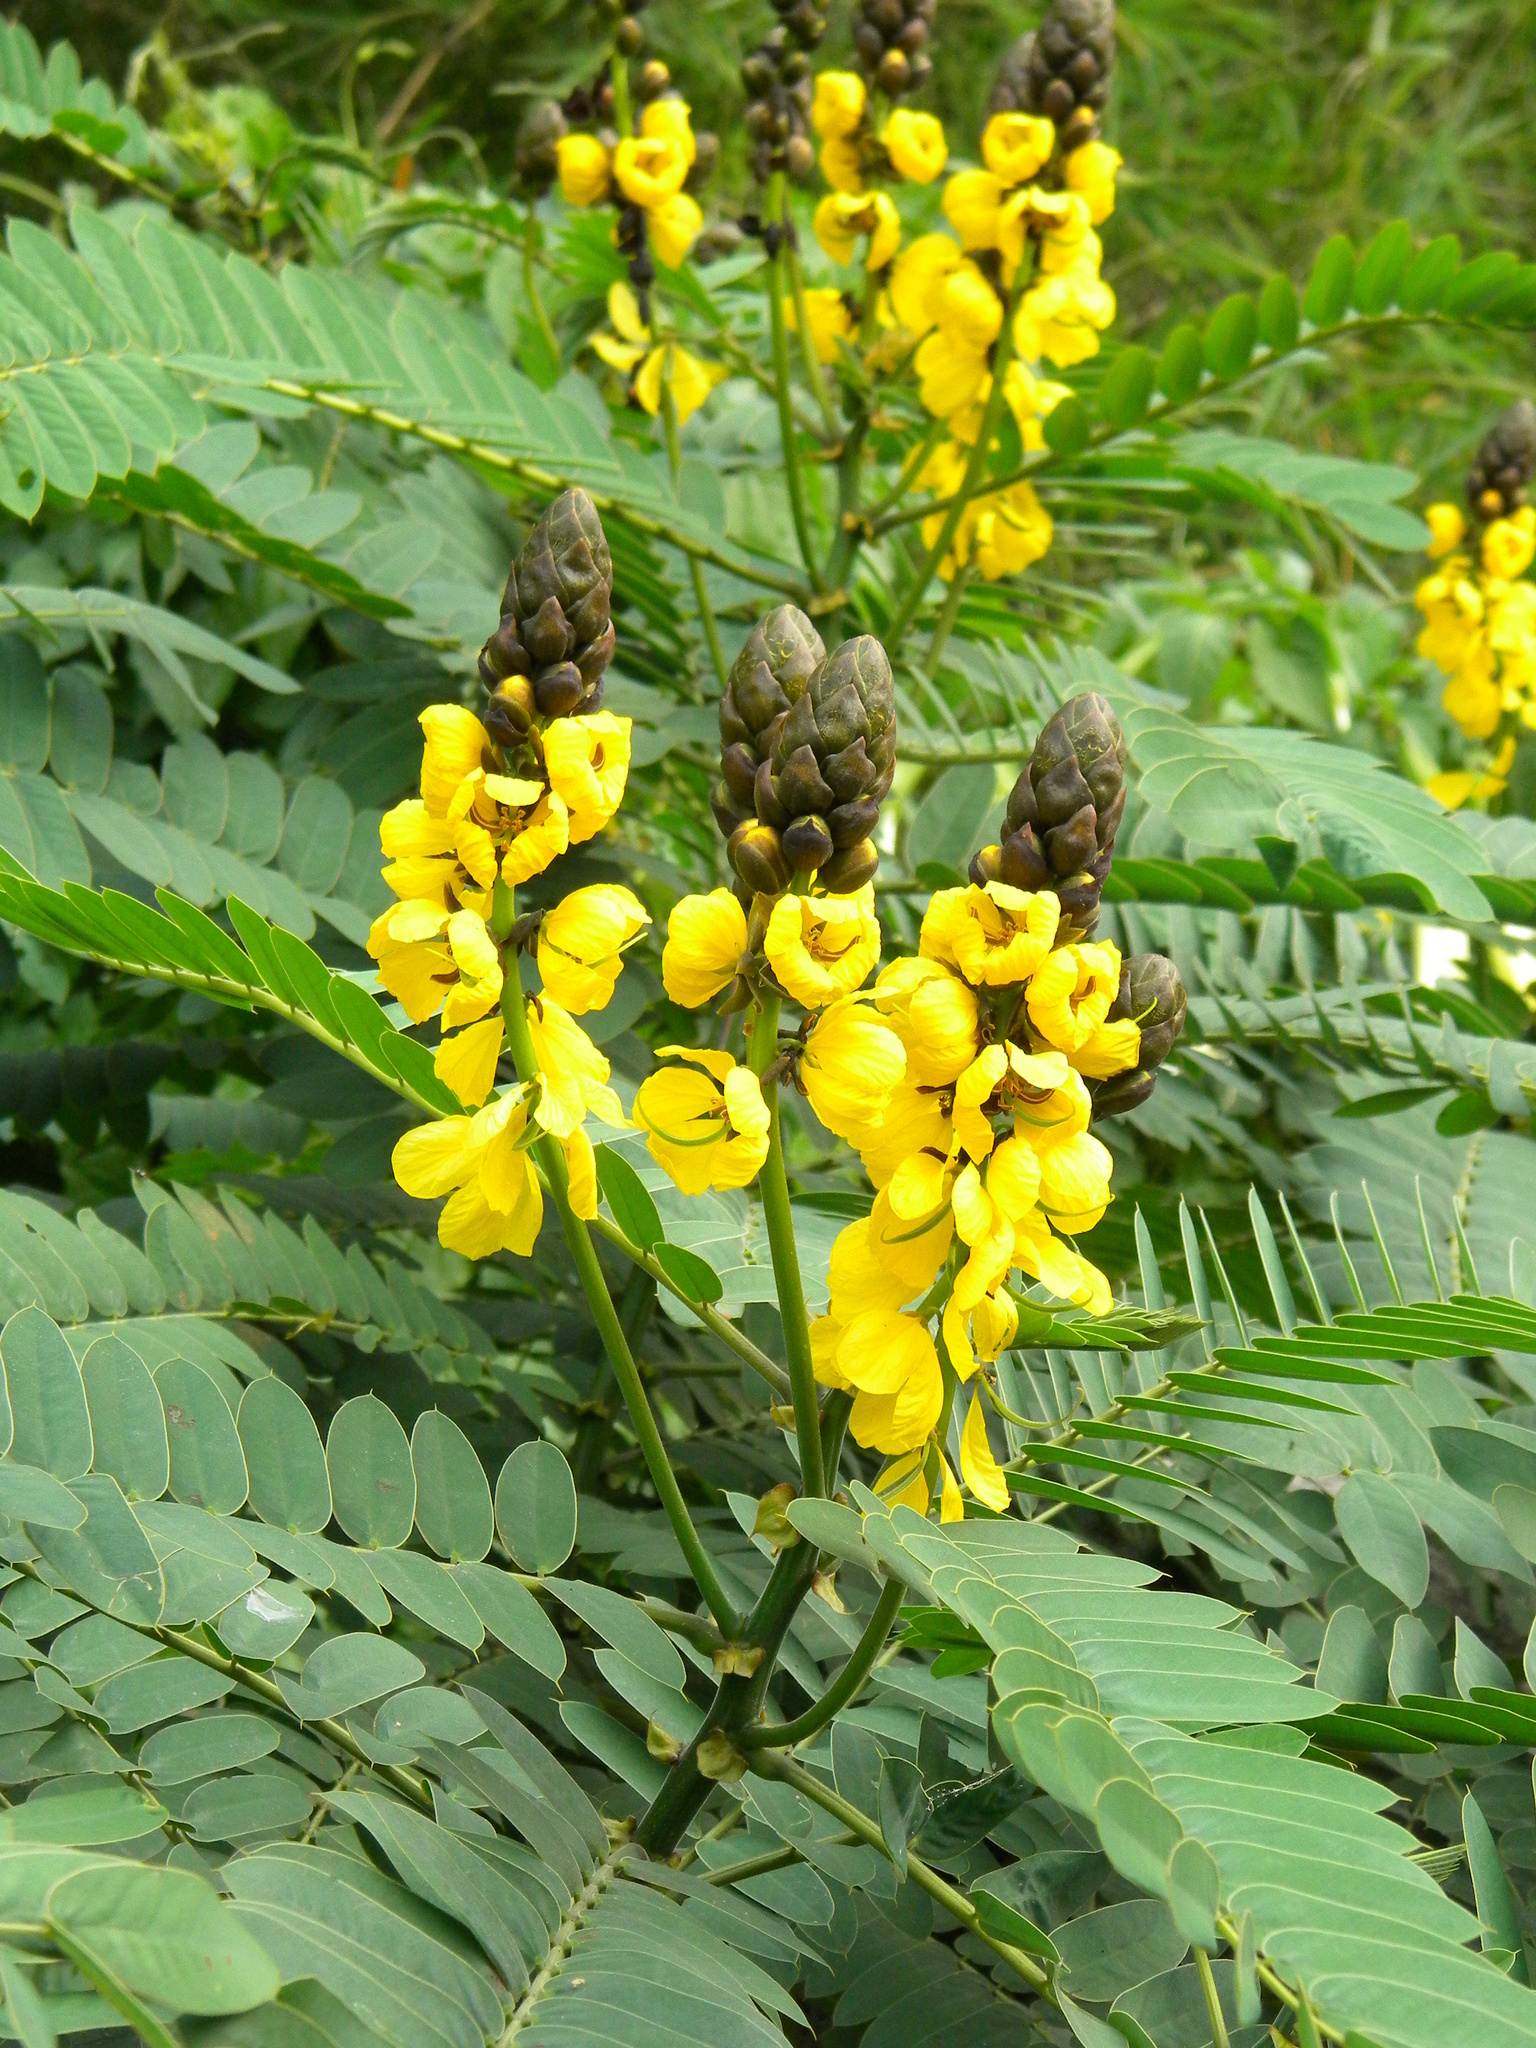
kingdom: Plantae
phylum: Tracheophyta
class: Magnoliopsida
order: Fabales
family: Fabaceae
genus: Senna
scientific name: Senna didymobotrya
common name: African senna
